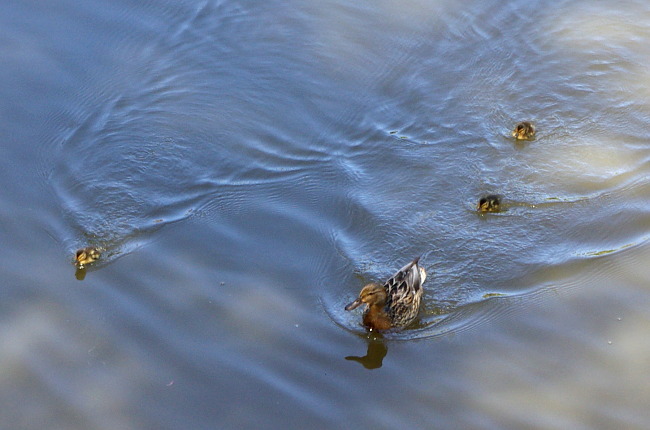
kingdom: Animalia
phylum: Chordata
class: Aves
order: Anseriformes
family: Anatidae
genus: Anas
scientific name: Anas platyrhynchos
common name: Mallard
